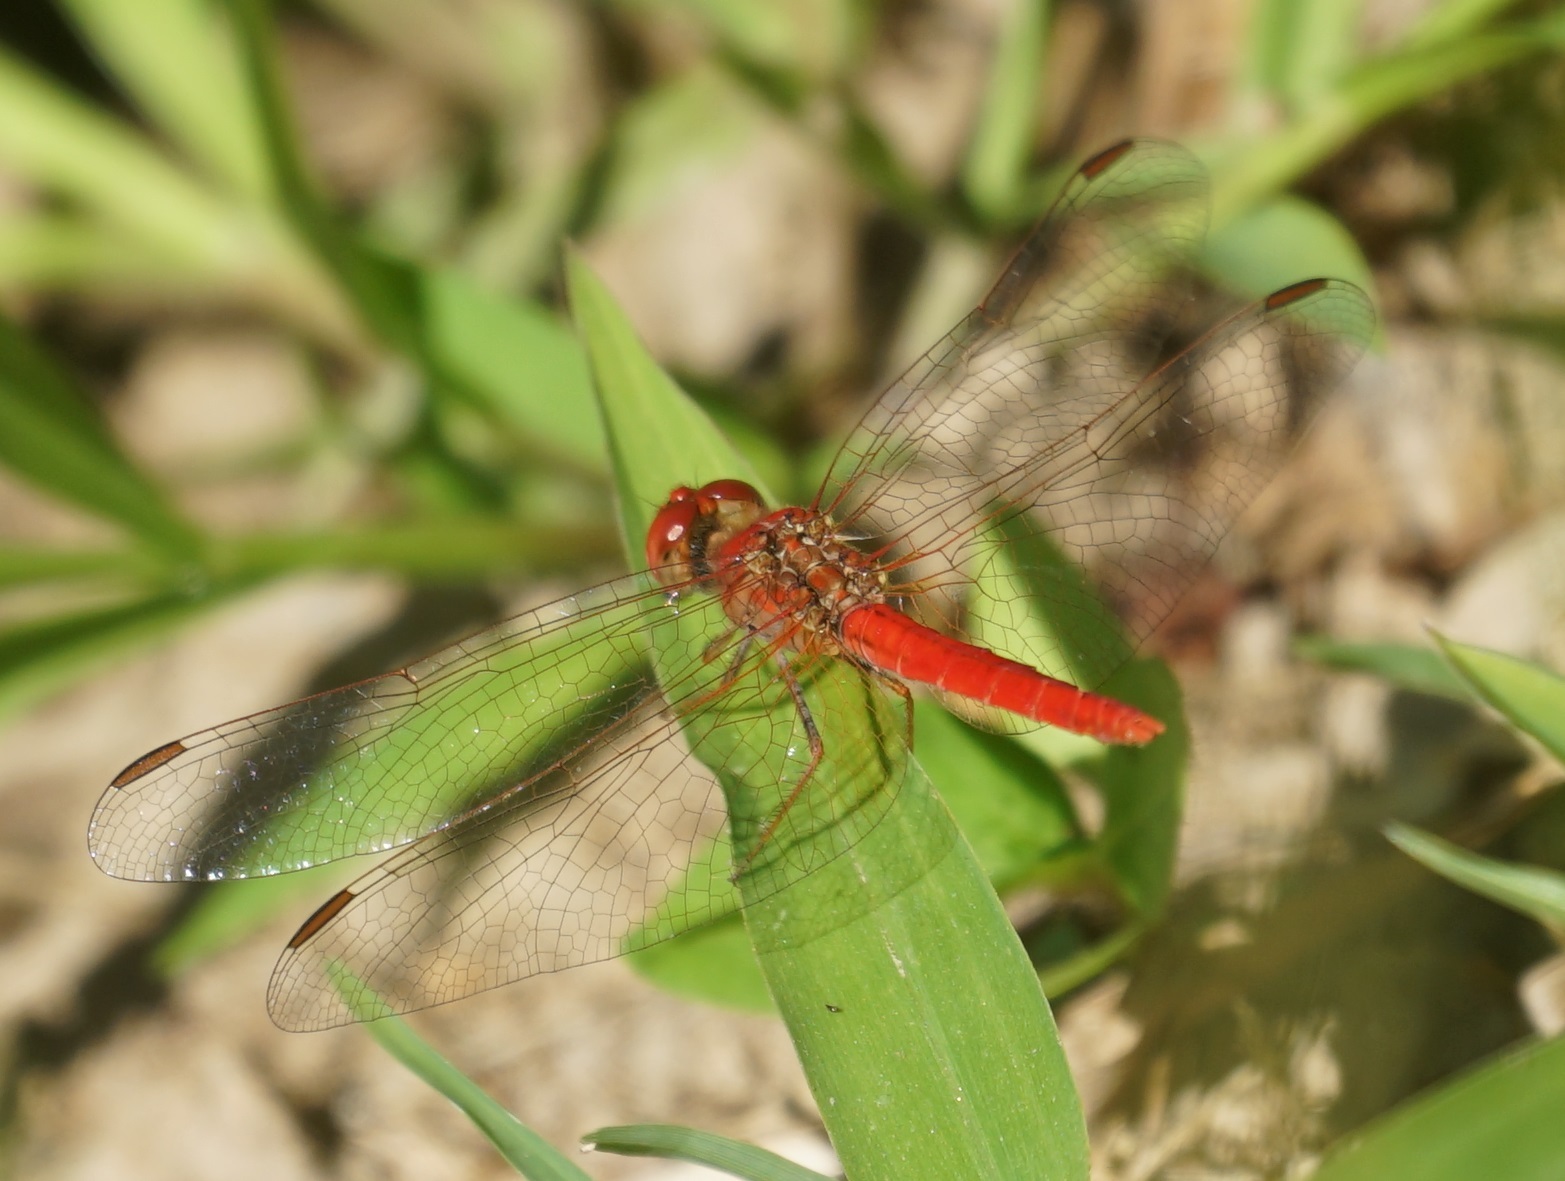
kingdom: Animalia
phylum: Arthropoda
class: Insecta
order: Odonata
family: Libellulidae
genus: Diplacodes
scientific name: Diplacodes haematodes
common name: Scarlet percher
